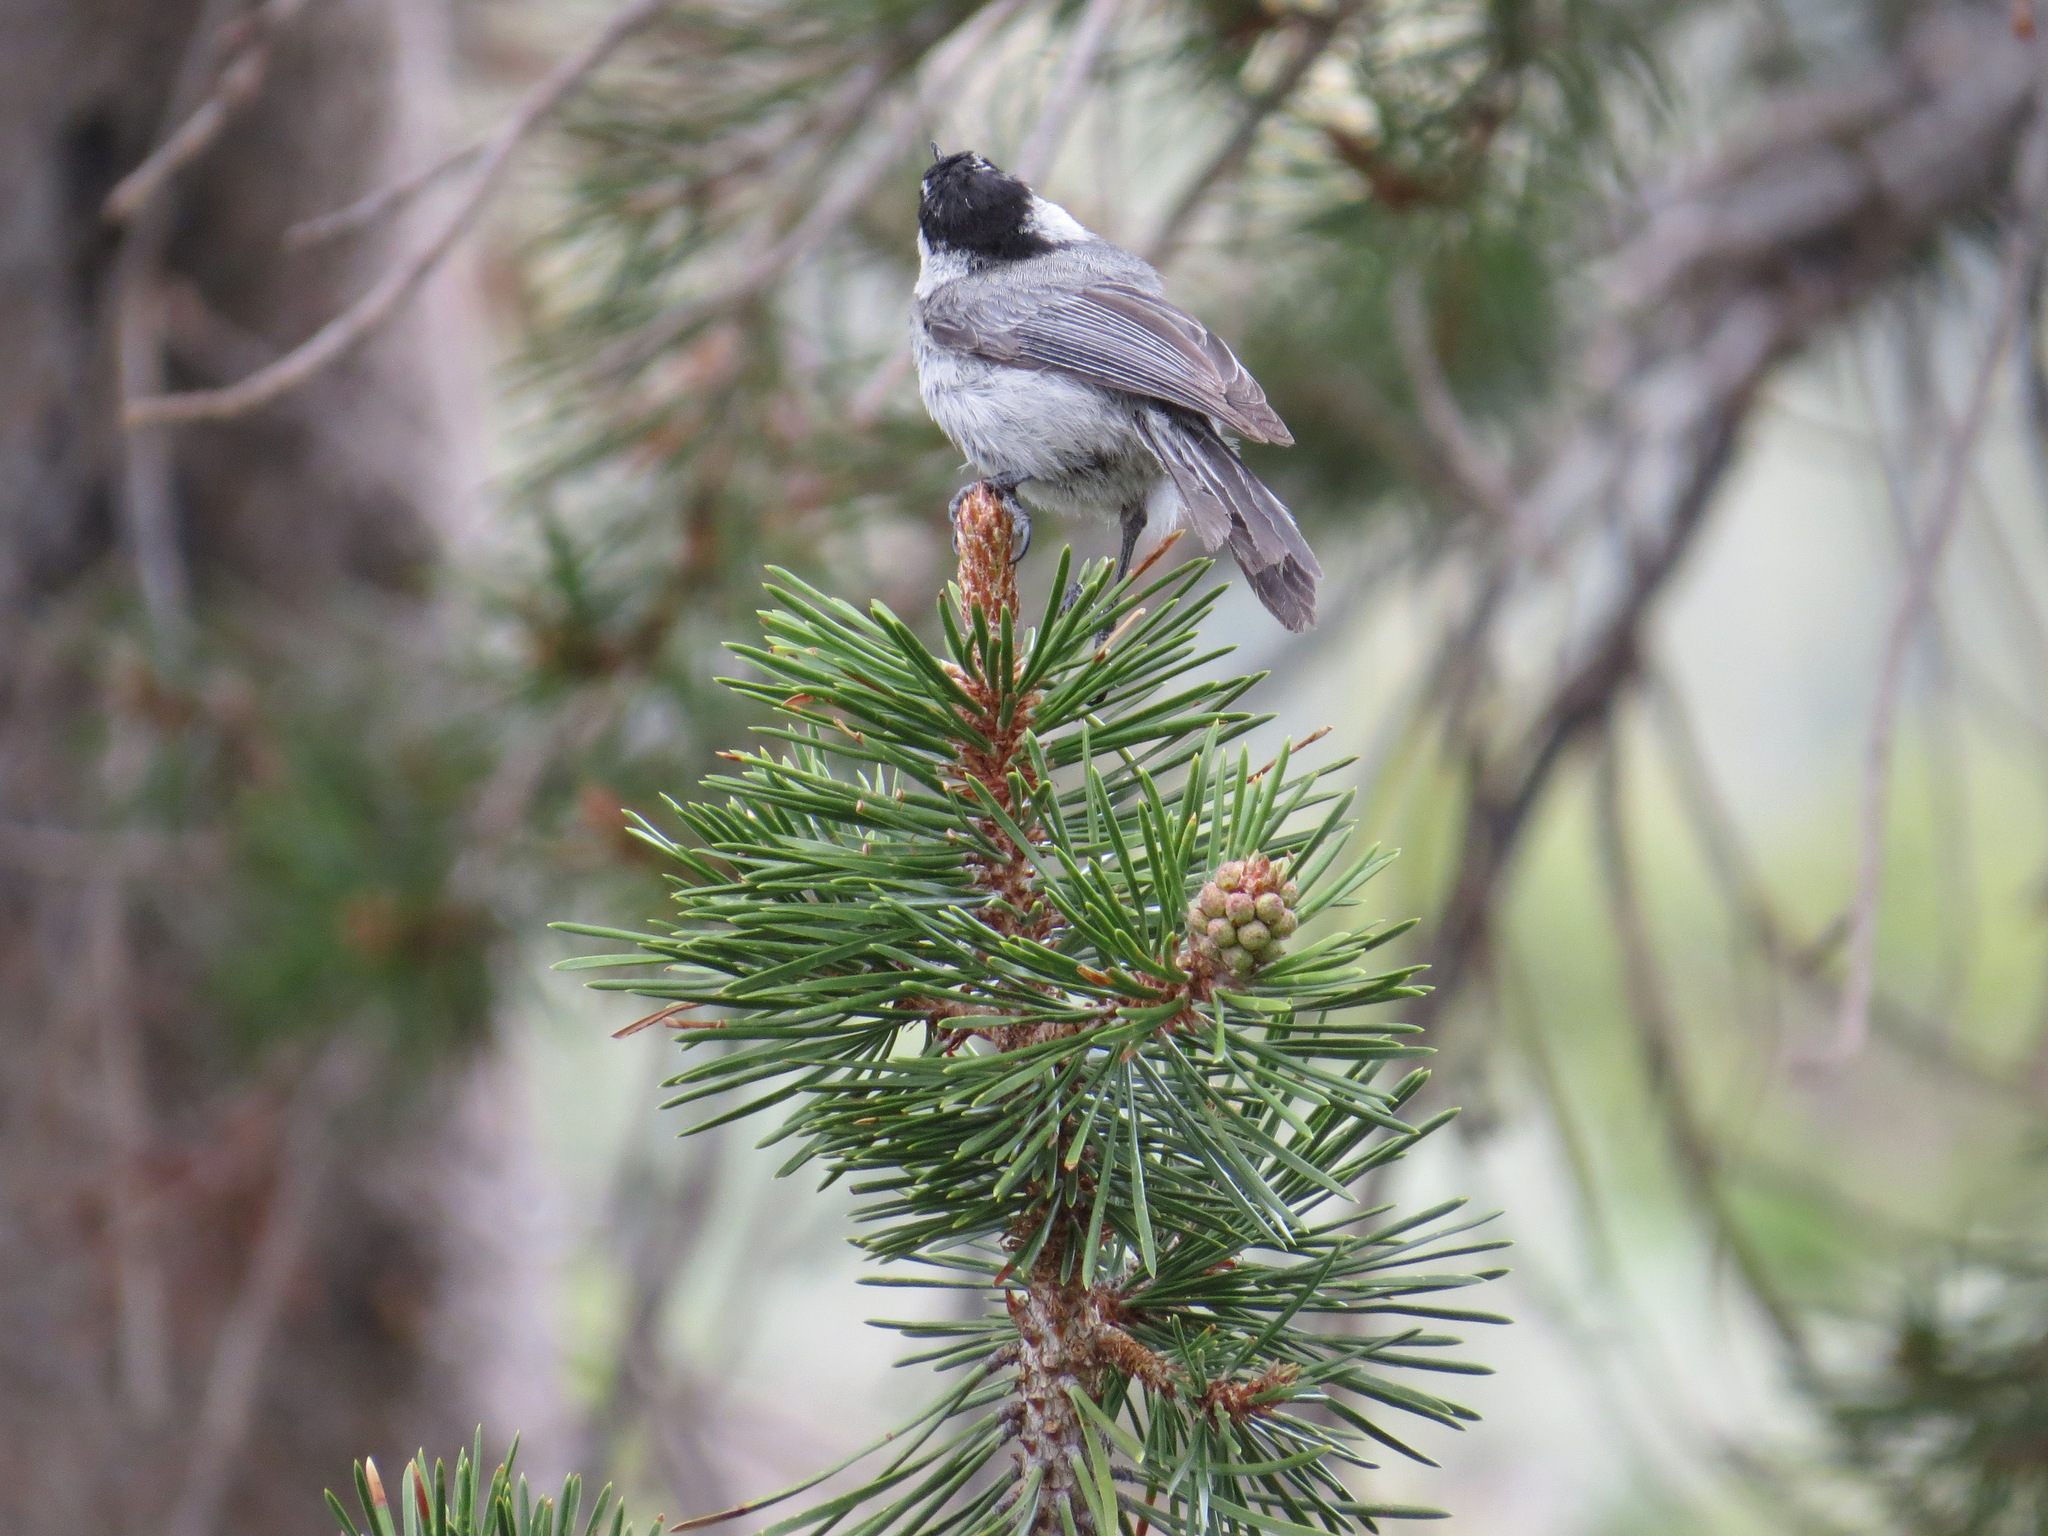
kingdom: Animalia
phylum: Chordata
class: Aves
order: Passeriformes
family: Paridae
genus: Poecile
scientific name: Poecile gambeli
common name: Mountain chickadee
